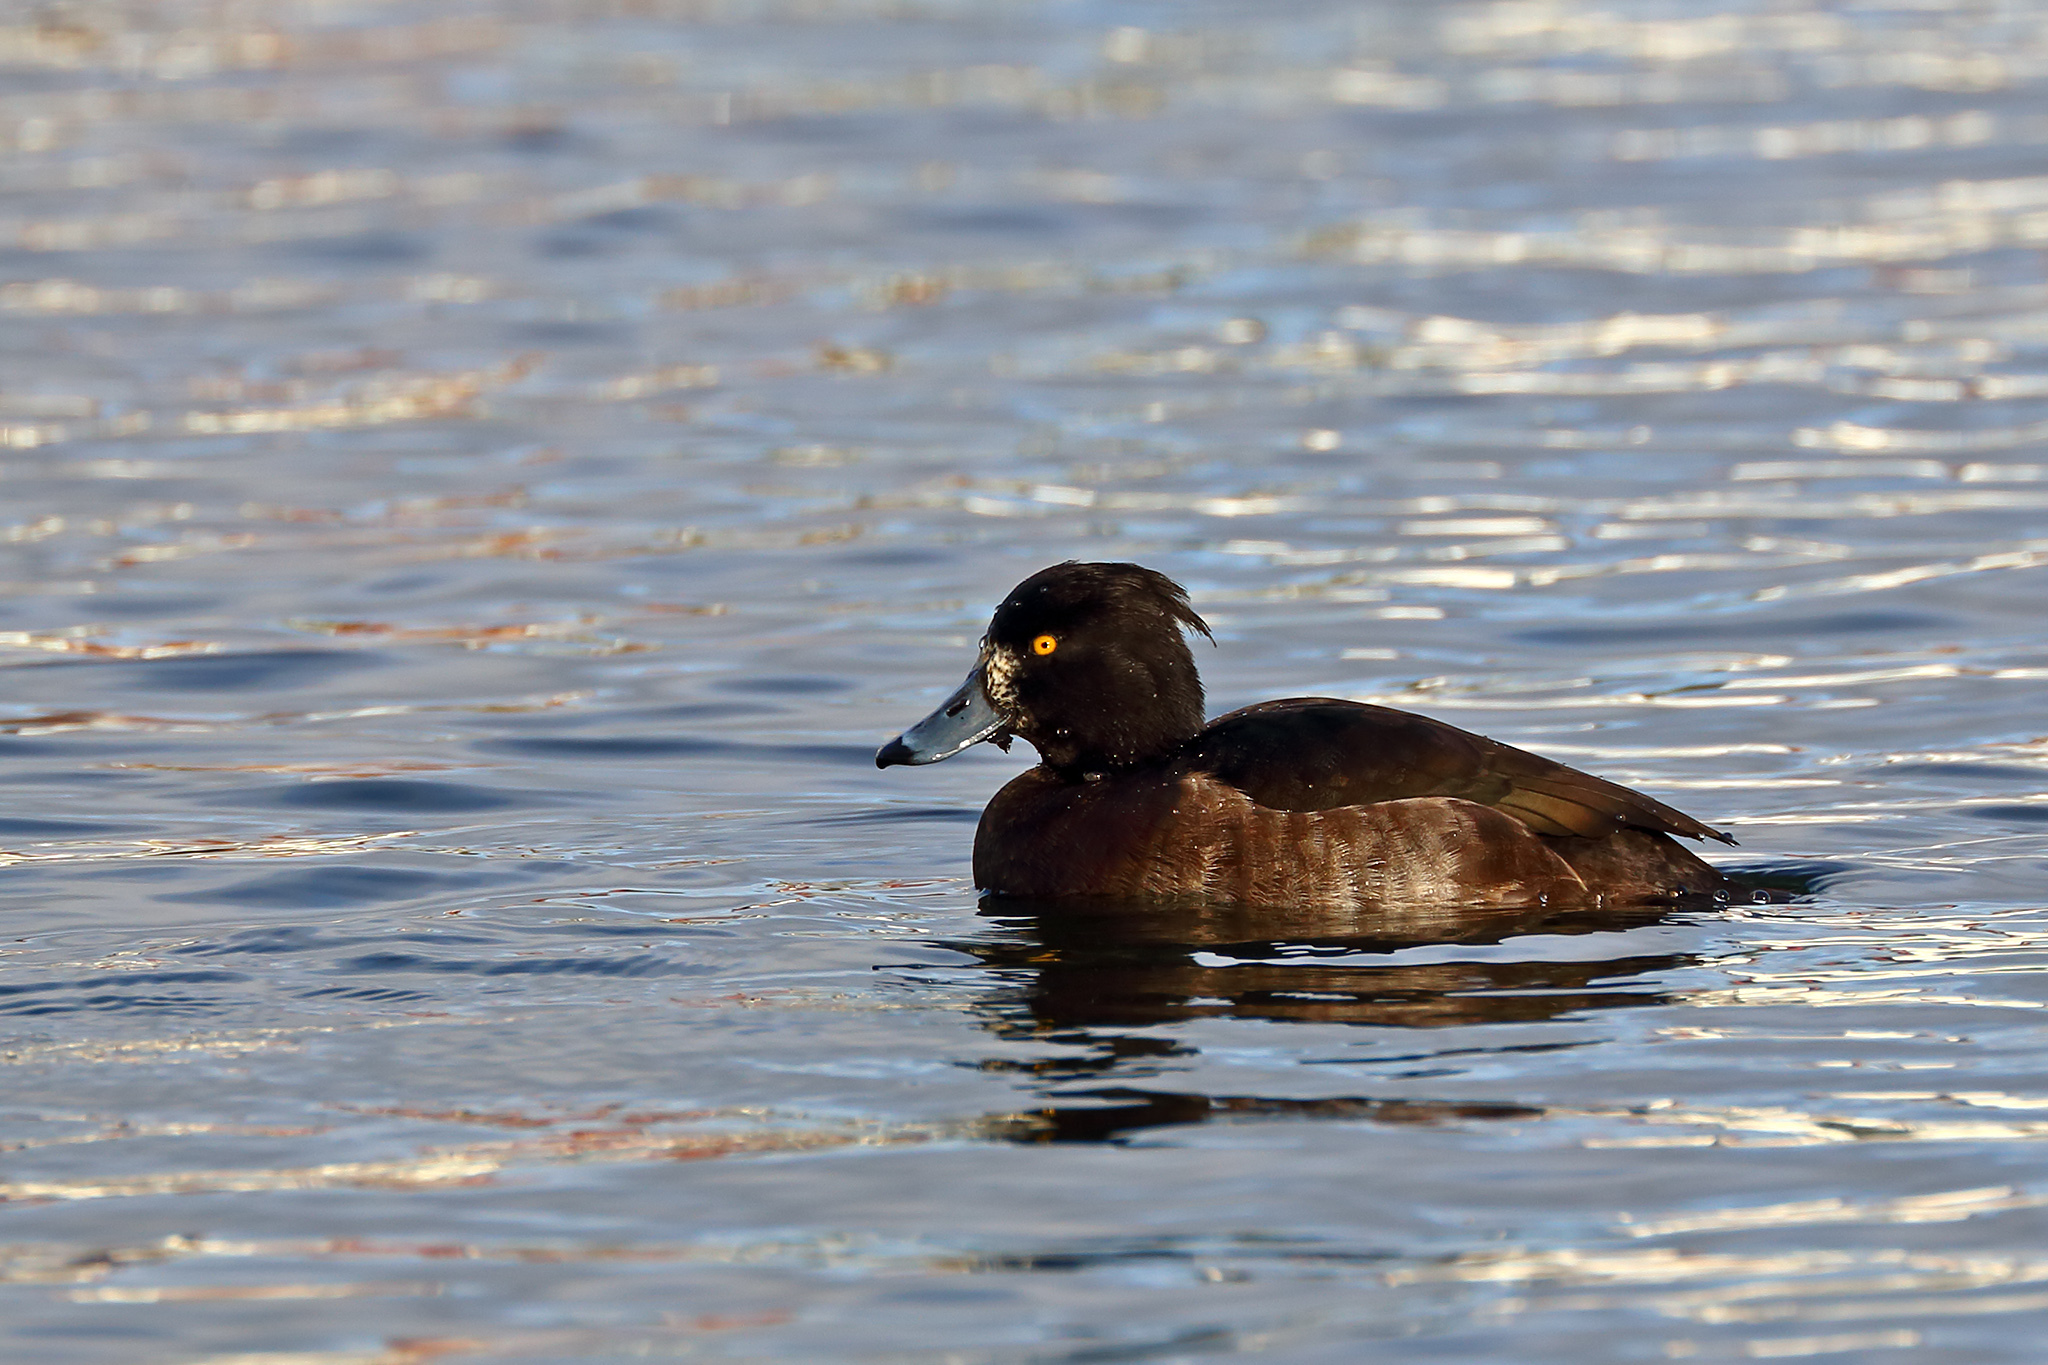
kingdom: Animalia
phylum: Chordata
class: Aves
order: Anseriformes
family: Anatidae
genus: Aythya
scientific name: Aythya fuligula
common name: Tufted duck
